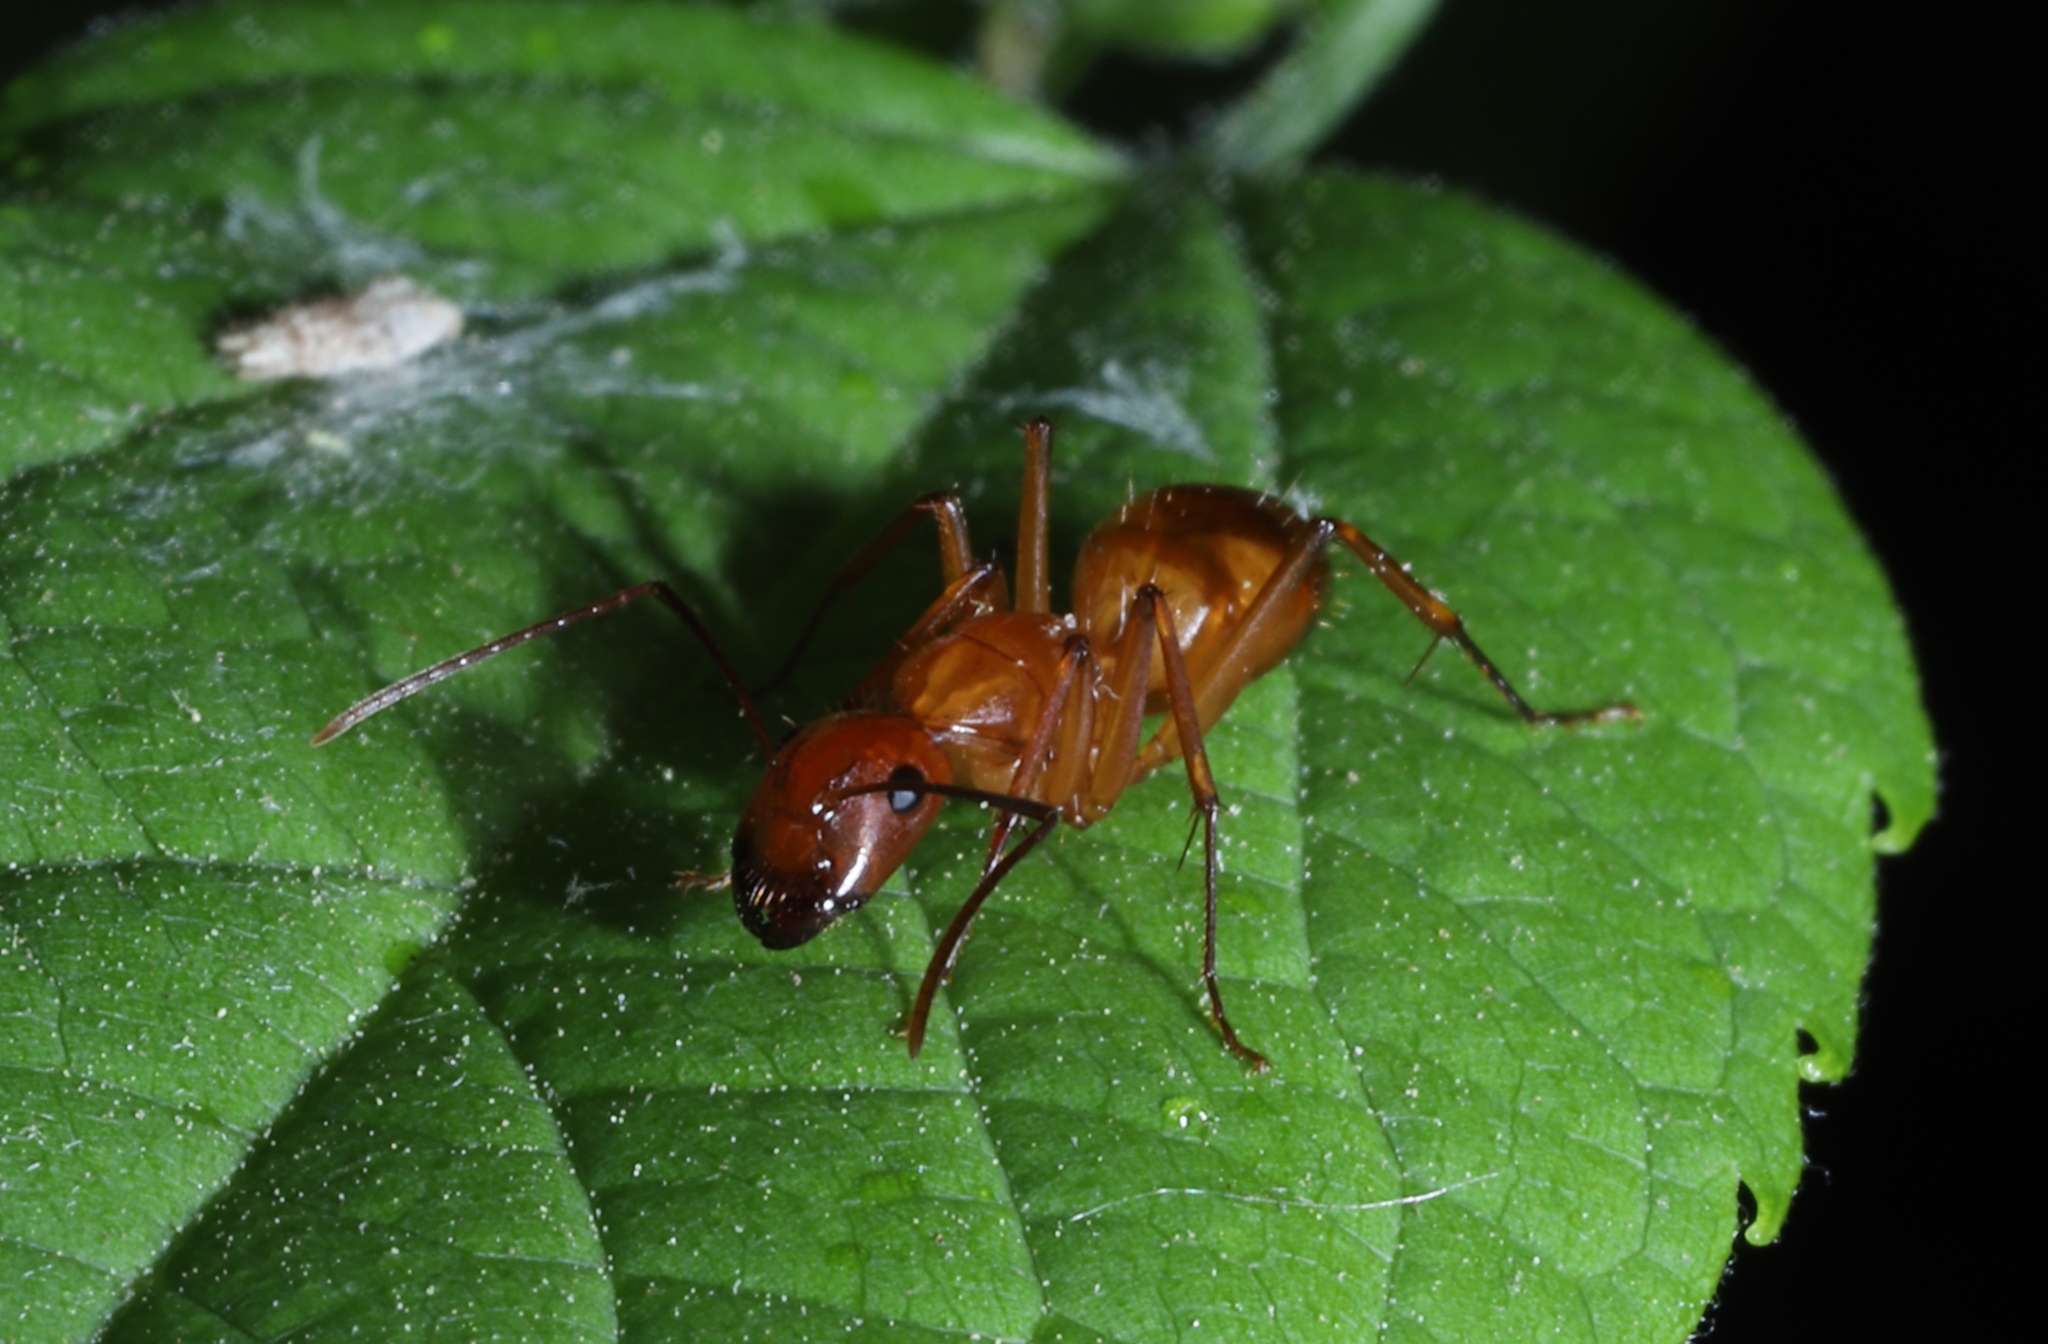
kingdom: Animalia
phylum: Arthropoda
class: Insecta
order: Hymenoptera
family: Formicidae
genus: Camponotus
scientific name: Camponotus castaneus
